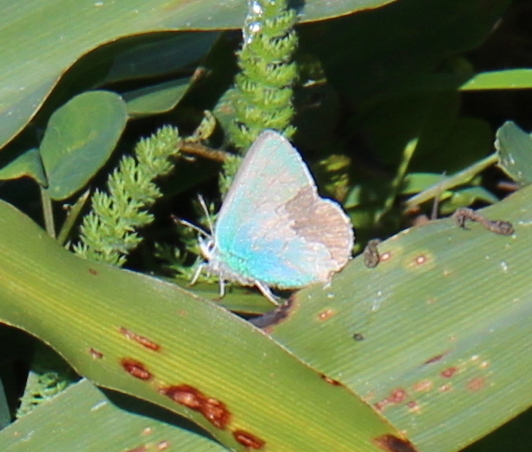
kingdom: Animalia
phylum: Arthropoda
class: Insecta
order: Lepidoptera
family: Lycaenidae
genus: Callophrys
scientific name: Callophrys viridis
